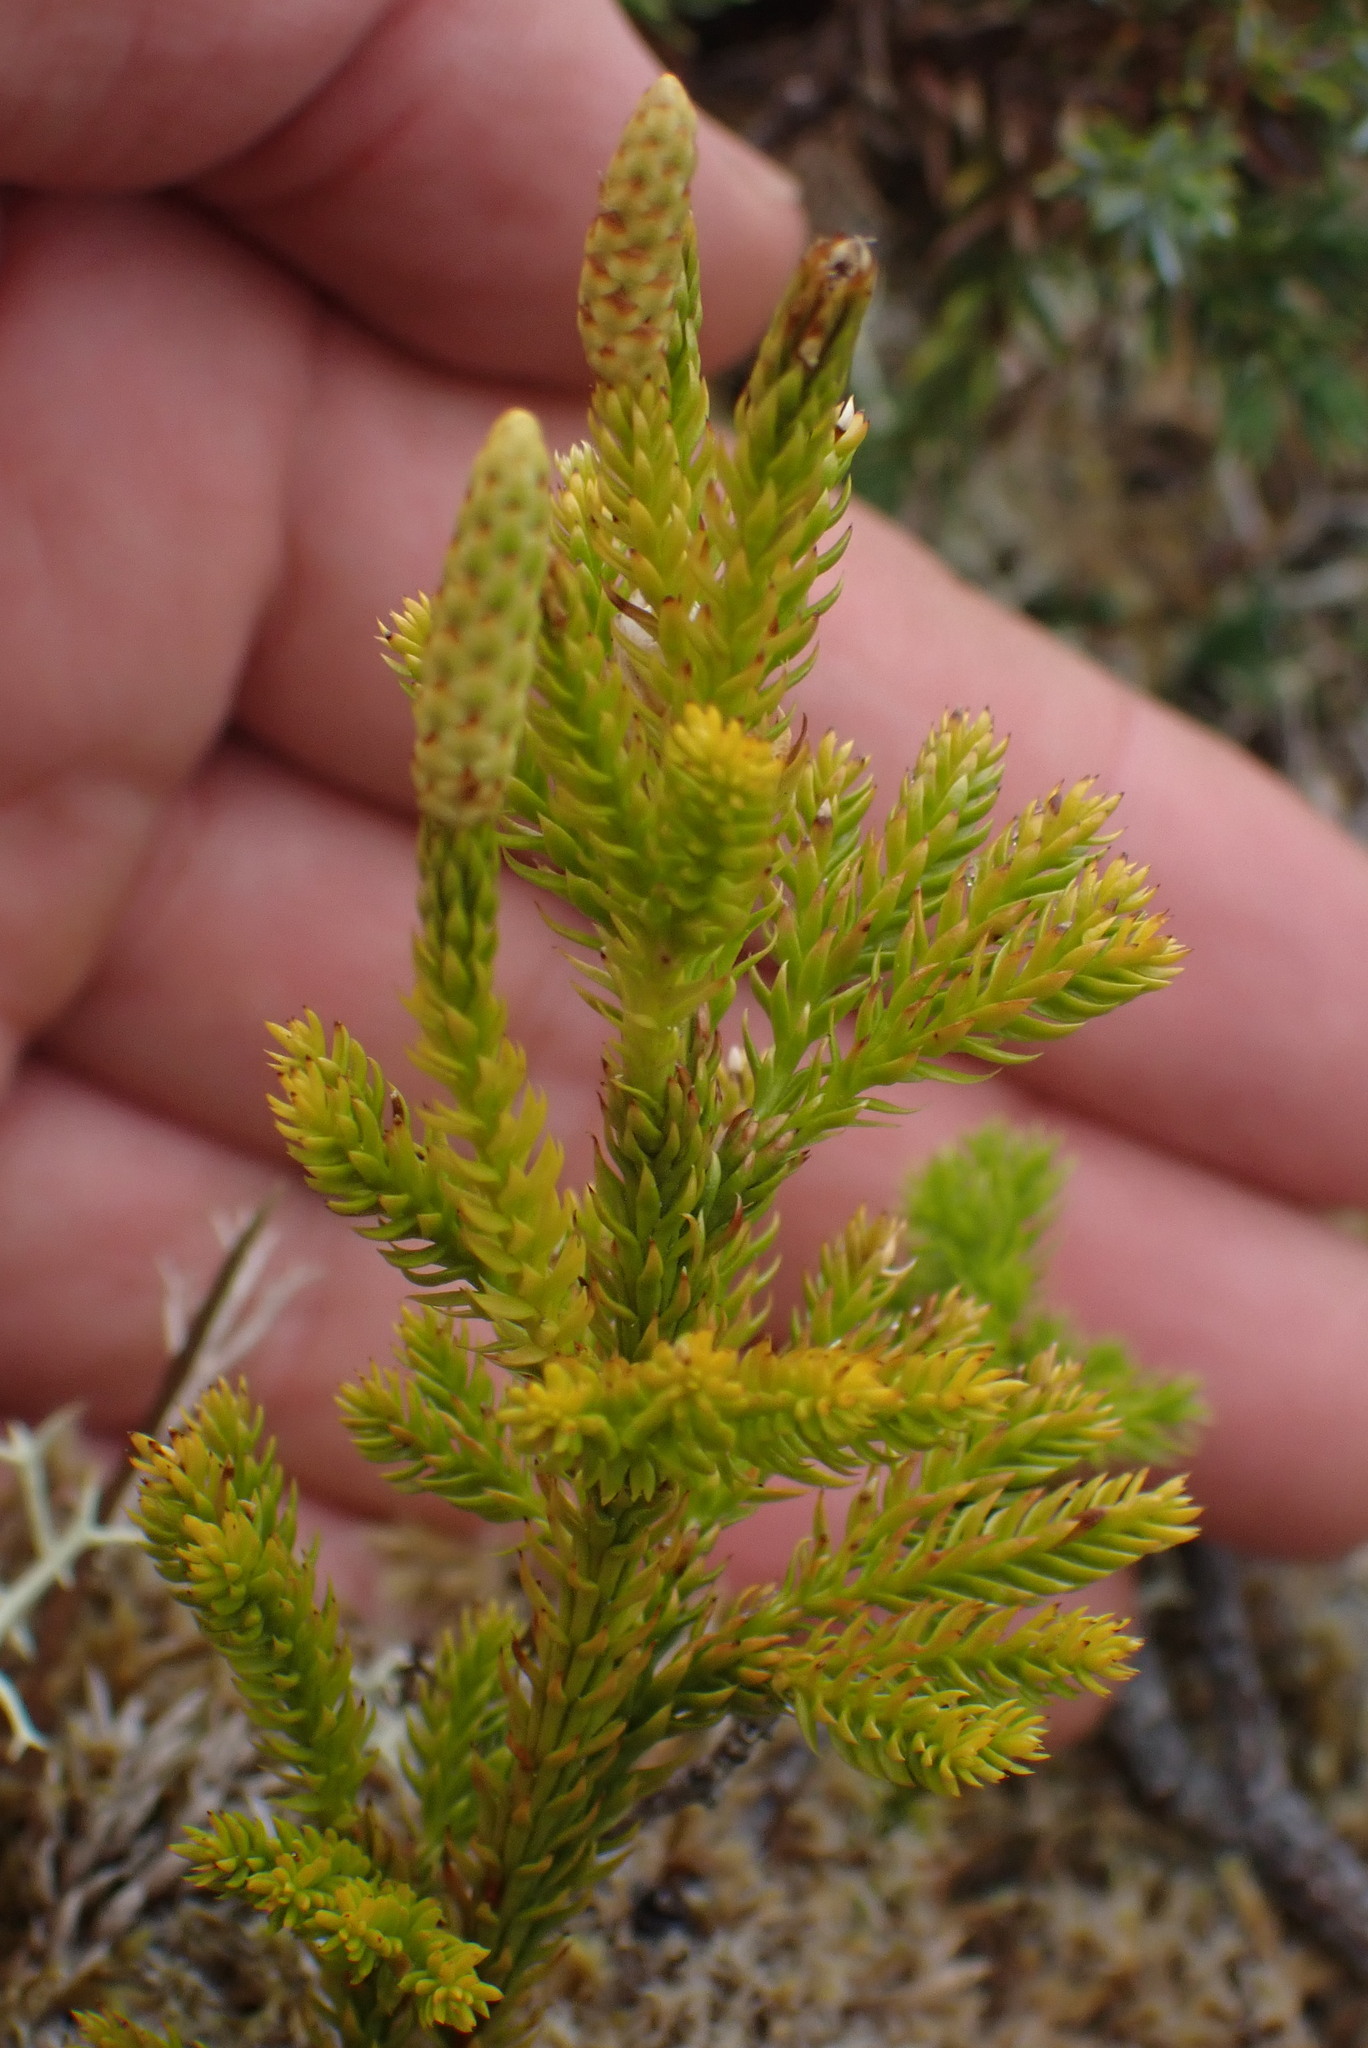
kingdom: Plantae
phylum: Tracheophyta
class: Lycopodiopsida
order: Lycopodiales
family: Lycopodiaceae
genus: Dendrolycopodium
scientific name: Dendrolycopodium dendroideum
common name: Northern tree-clubmoss
